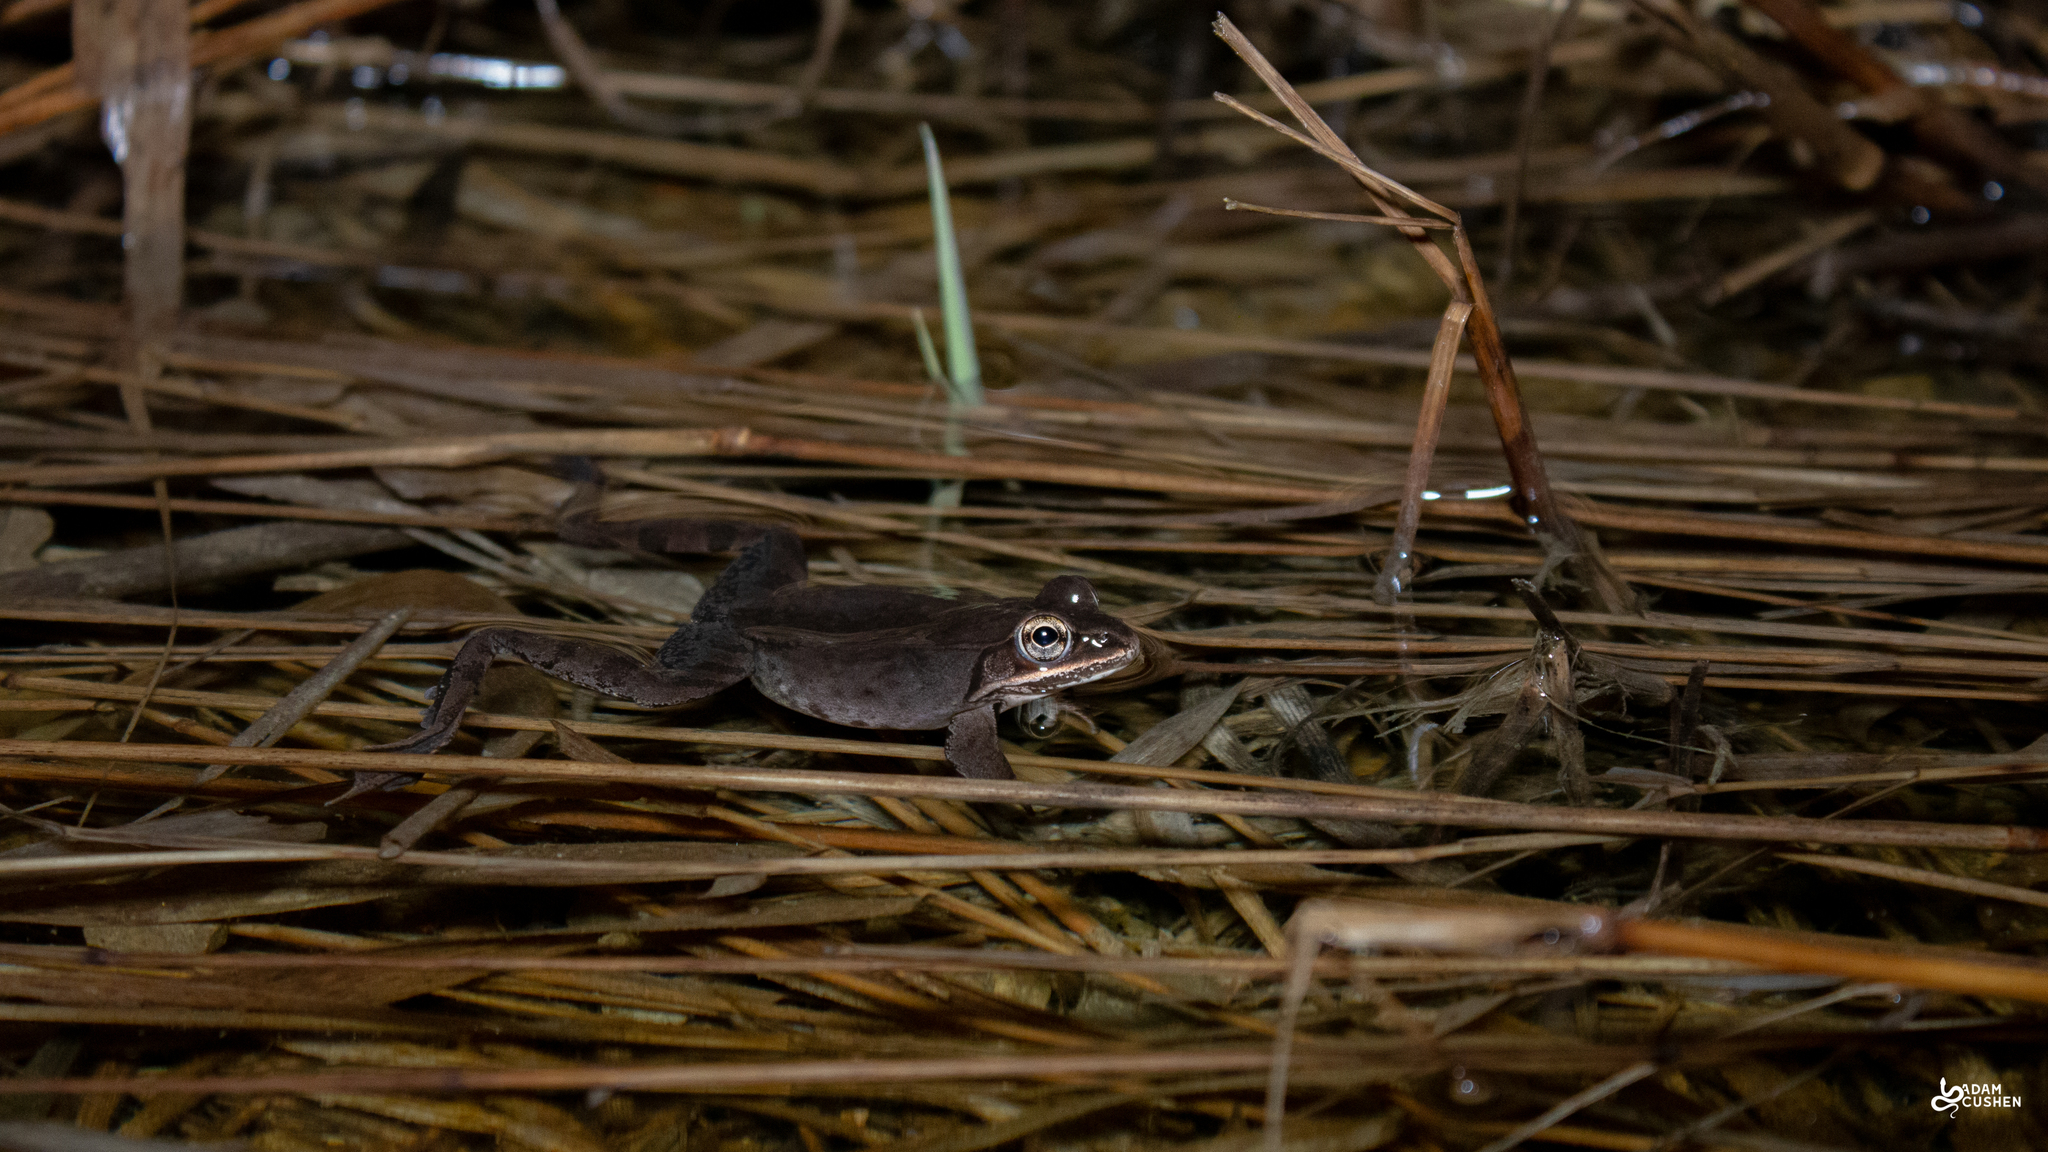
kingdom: Animalia
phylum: Chordata
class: Amphibia
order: Anura
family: Ranidae
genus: Lithobates
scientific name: Lithobates sylvaticus
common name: Wood frog
